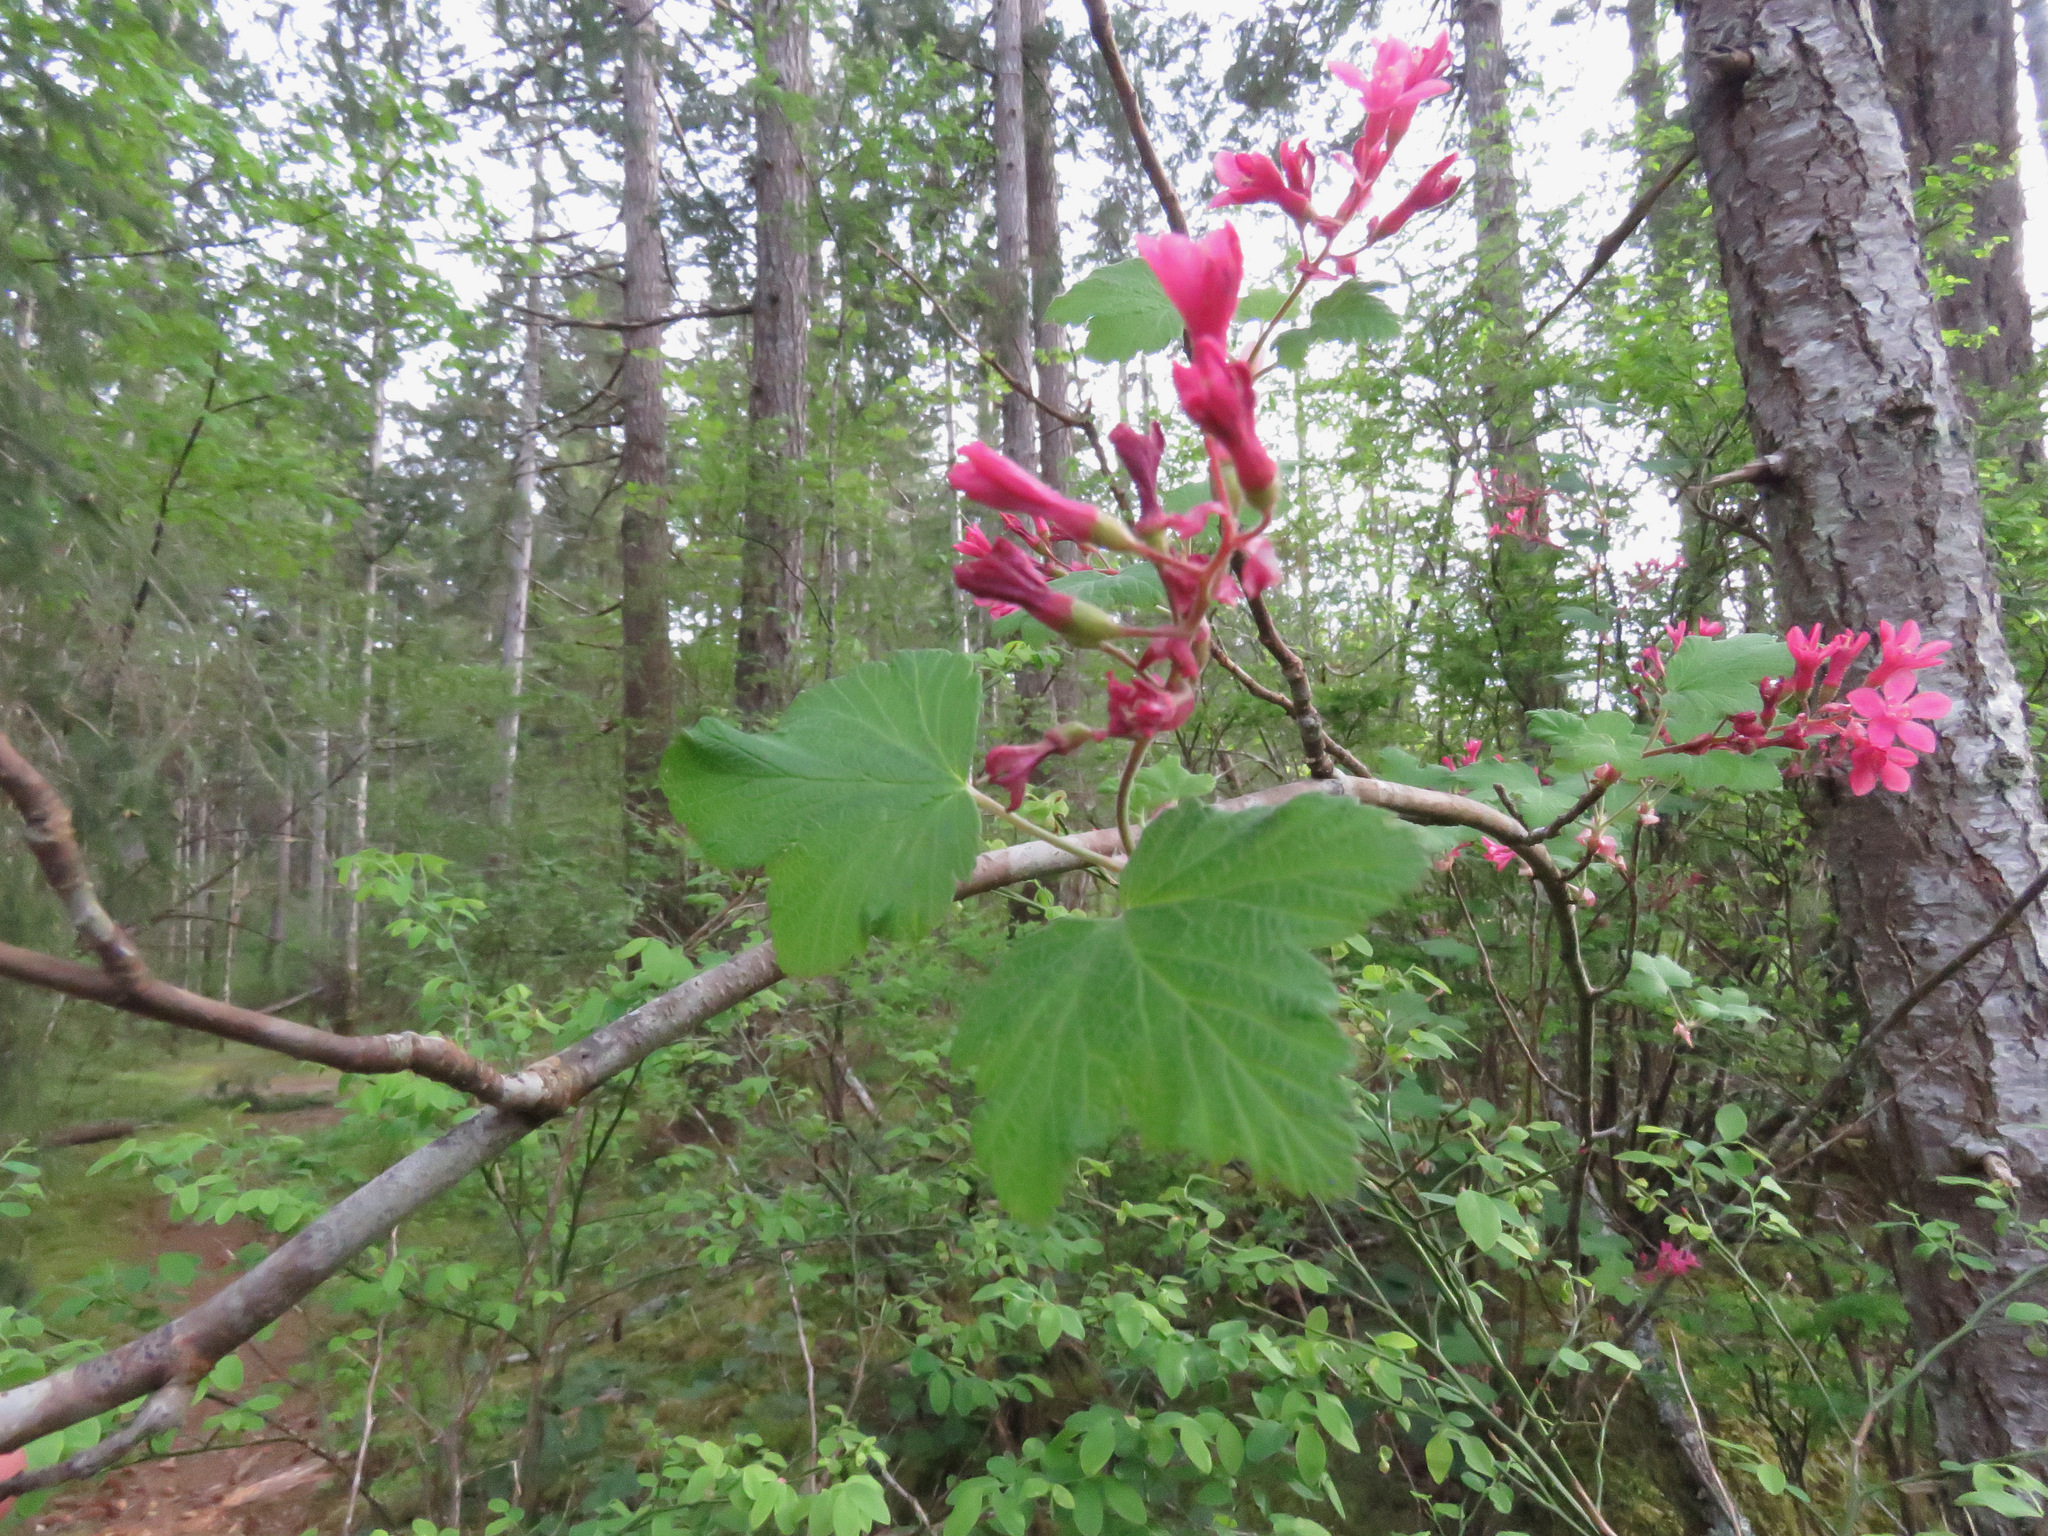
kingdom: Plantae
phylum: Tracheophyta
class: Magnoliopsida
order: Saxifragales
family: Grossulariaceae
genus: Ribes
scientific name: Ribes sanguineum
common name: Flowering currant
